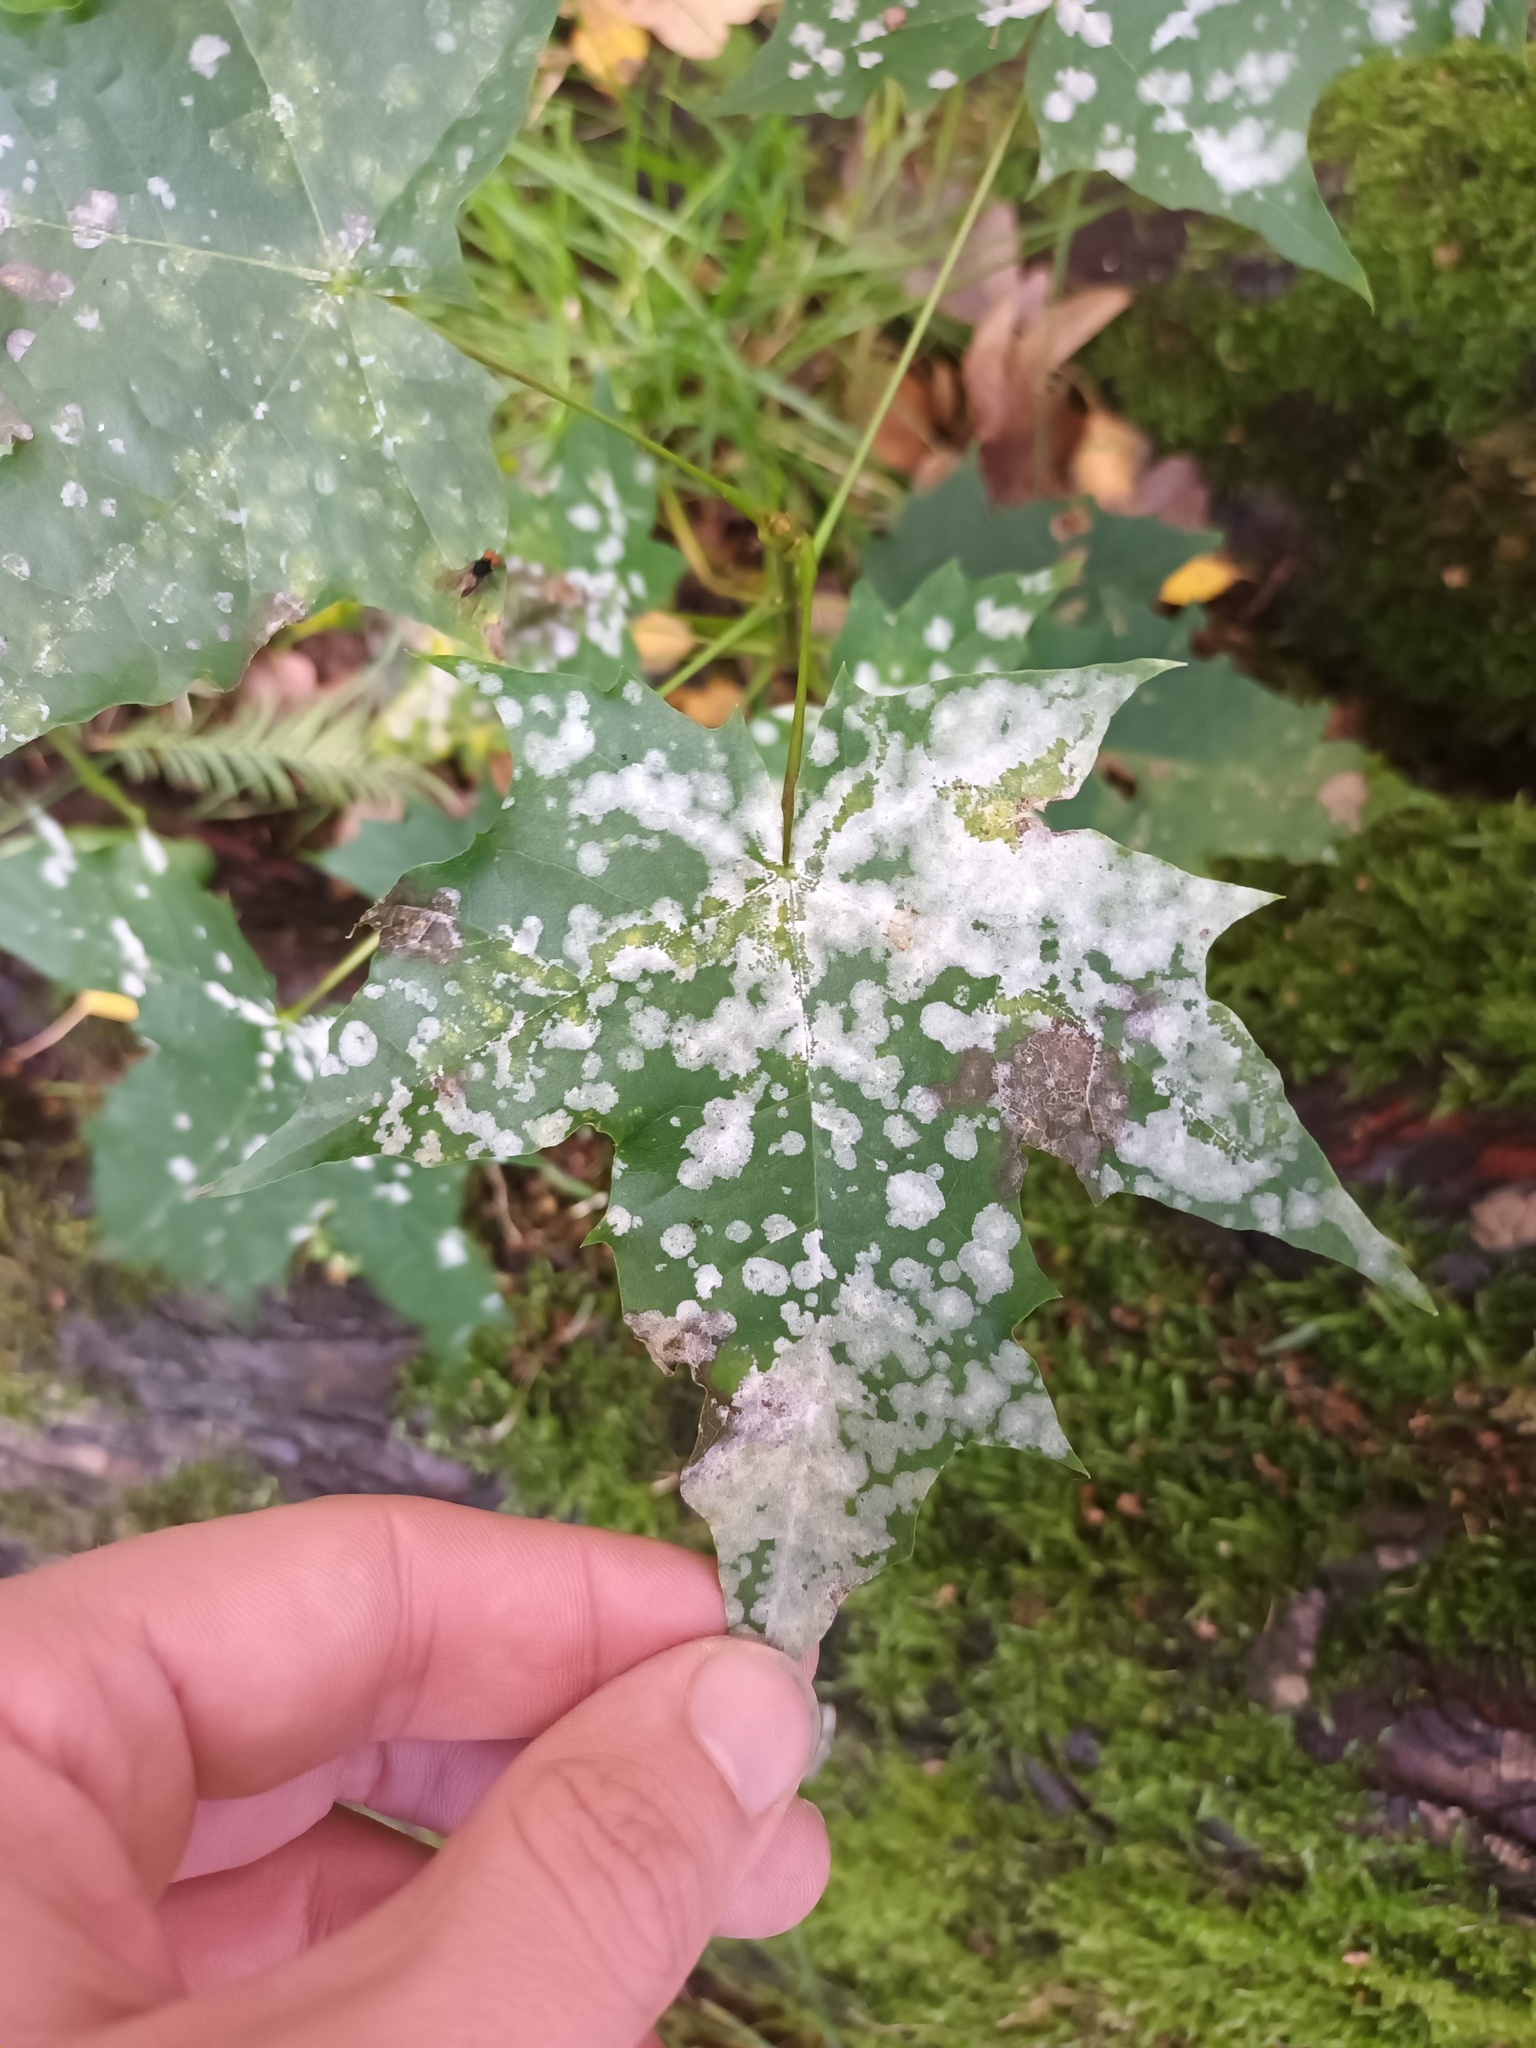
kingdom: Fungi
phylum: Ascomycota
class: Leotiomycetes
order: Helotiales
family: Erysiphaceae
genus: Sawadaea
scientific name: Sawadaea tulasnei
